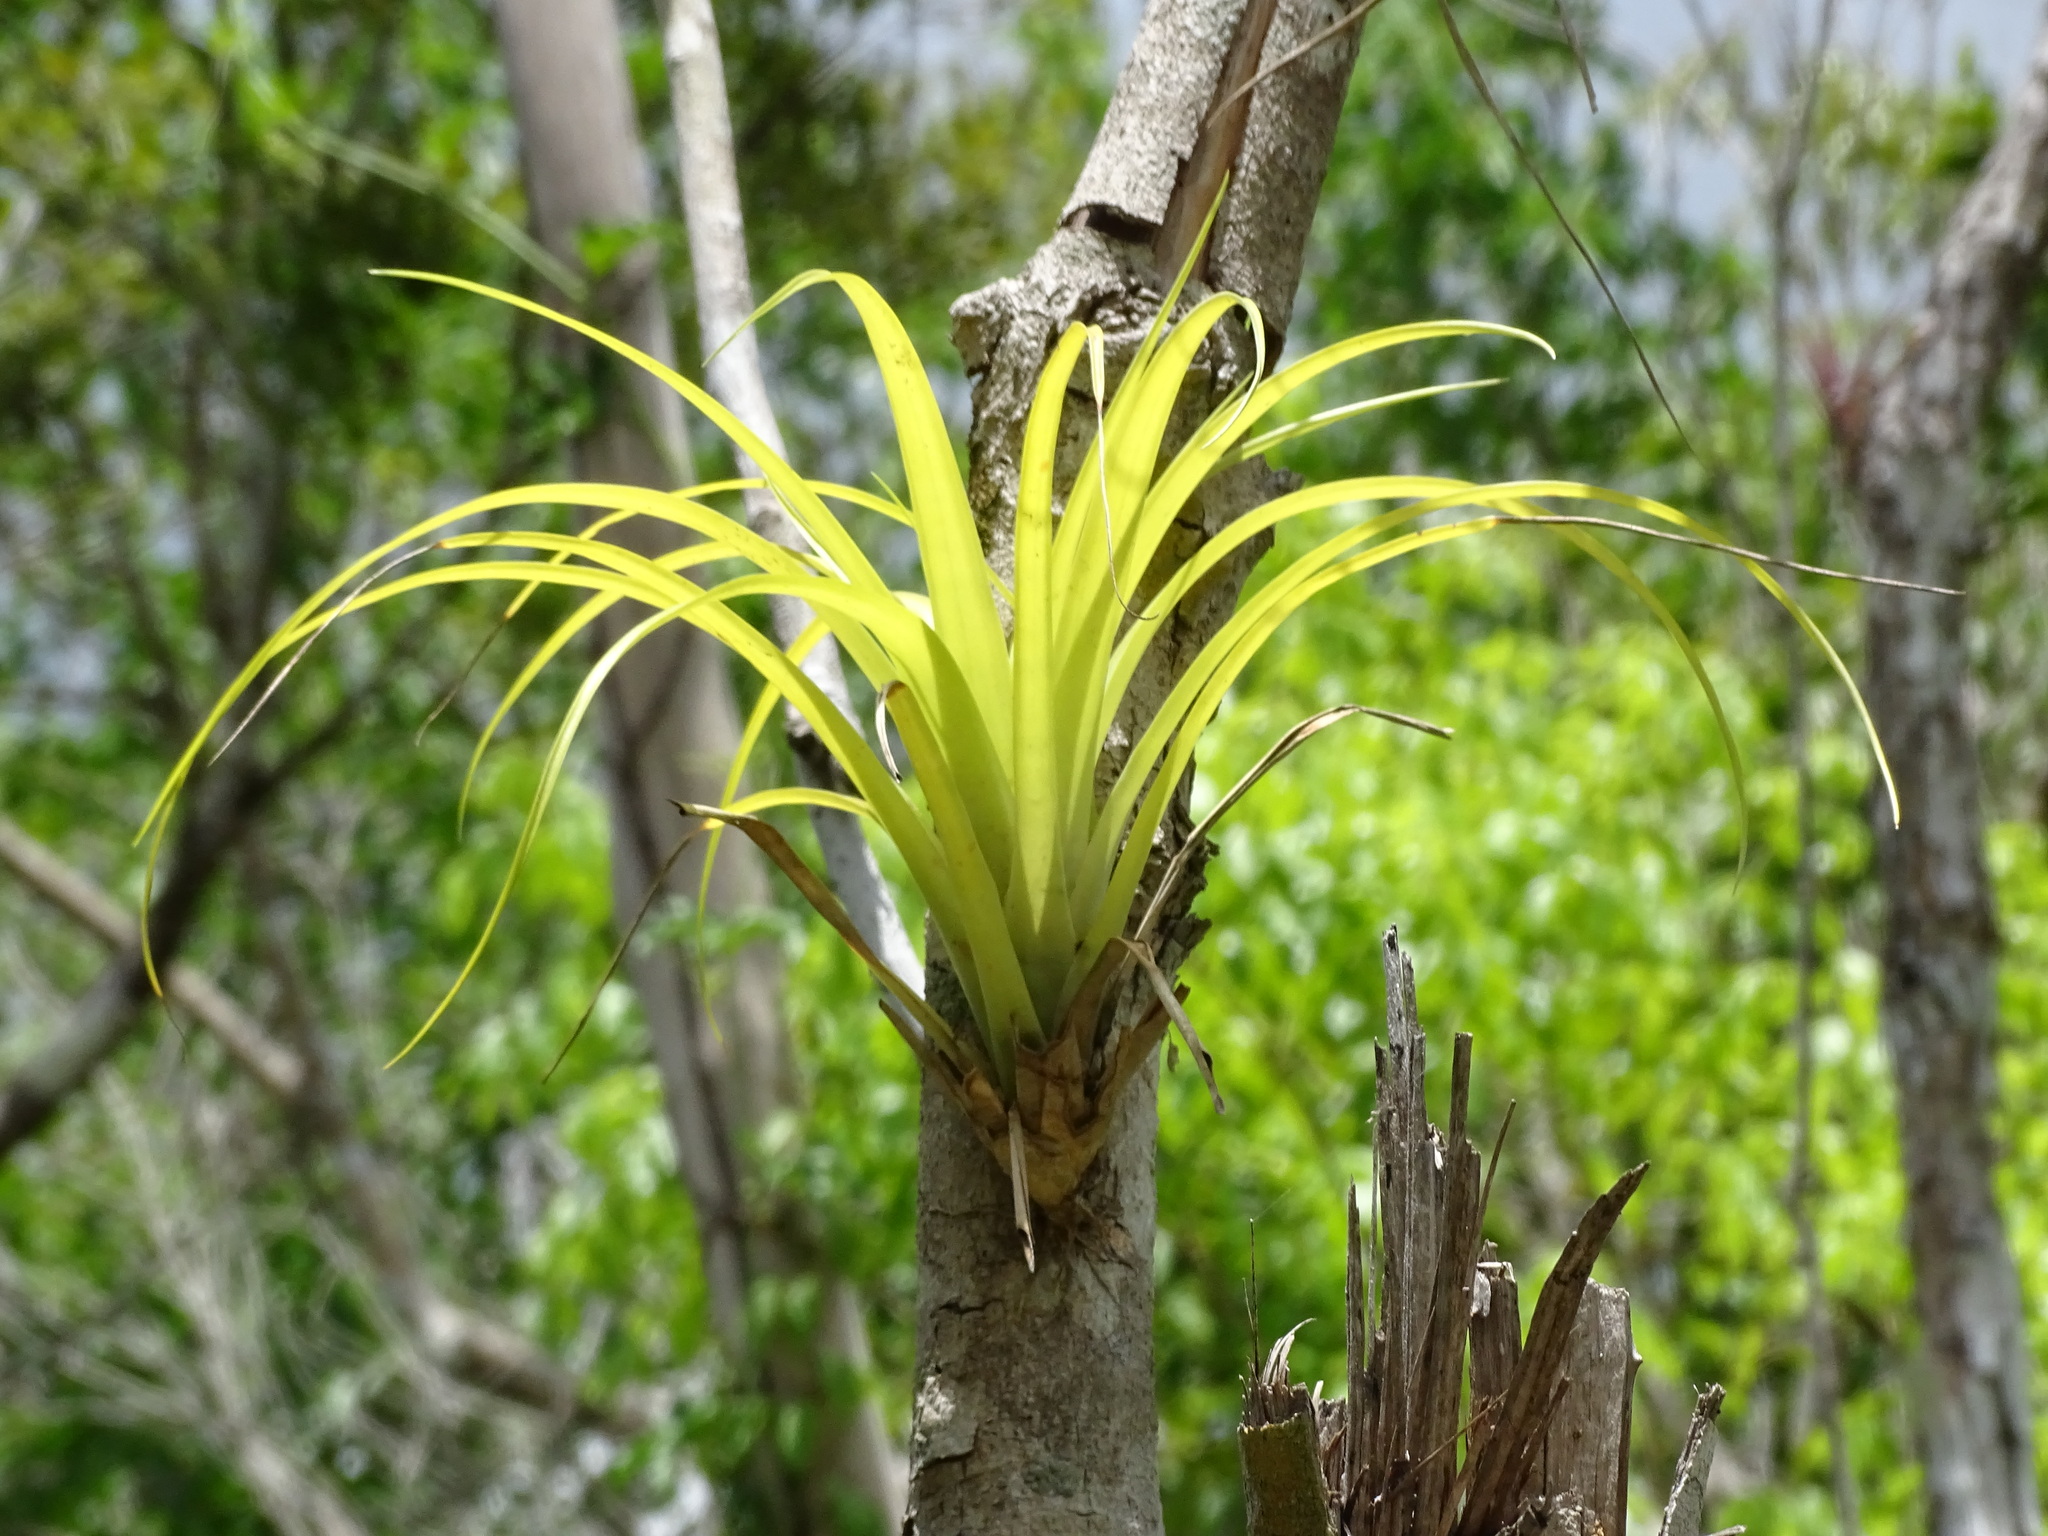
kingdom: Plantae
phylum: Tracheophyta
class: Liliopsida
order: Poales
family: Bromeliaceae
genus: Tillandsia
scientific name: Tillandsia dasyliriifolia
